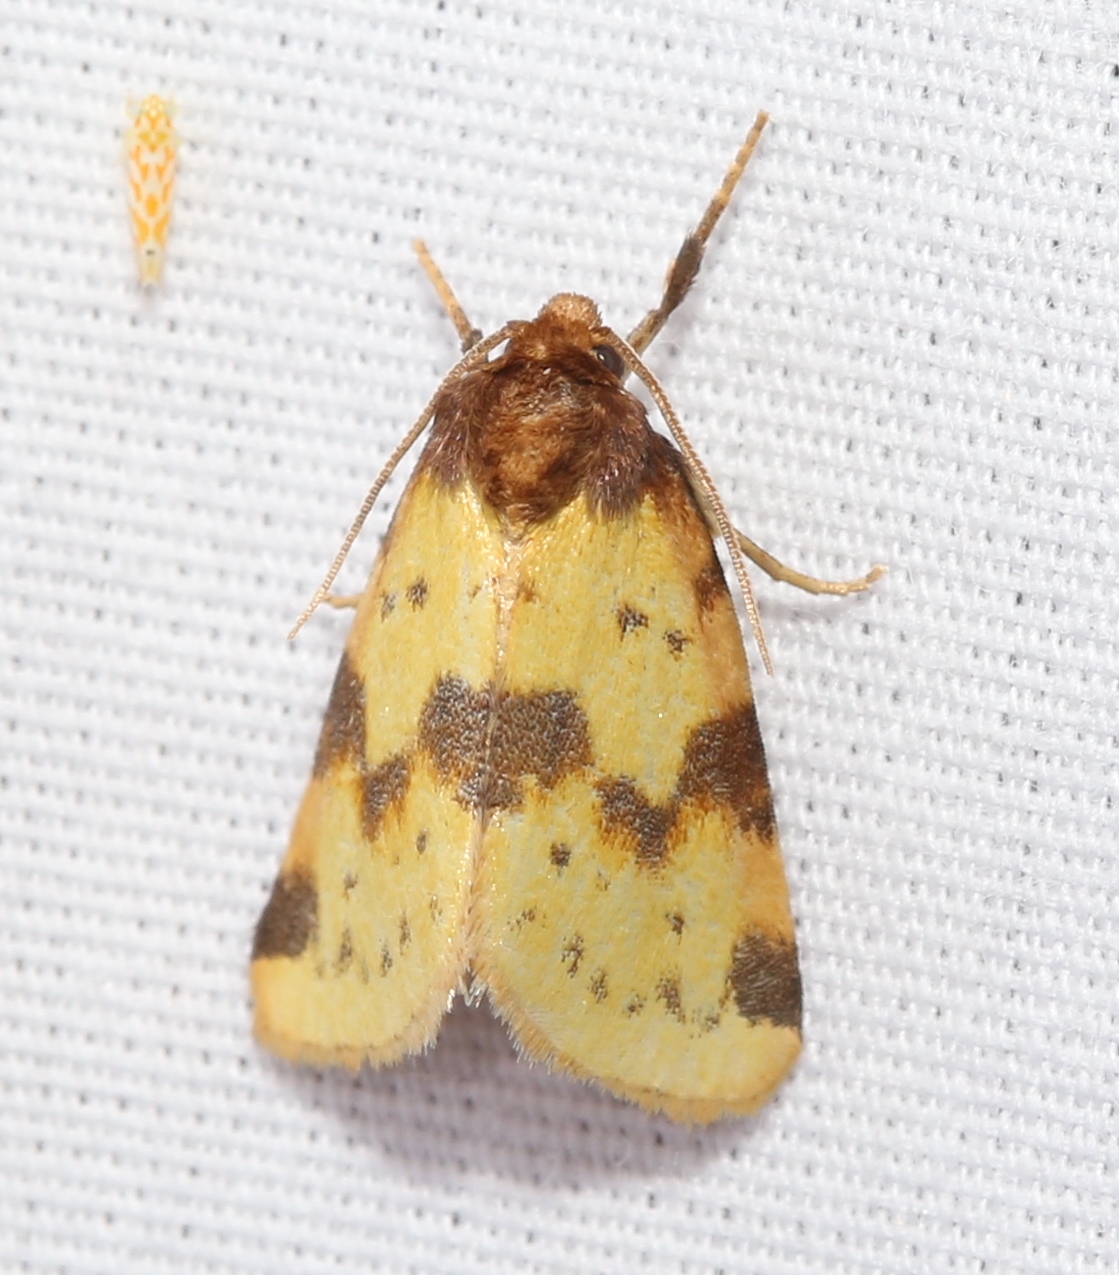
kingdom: Animalia
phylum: Arthropoda
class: Insecta
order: Lepidoptera
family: Noctuidae
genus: Azenia
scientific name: Azenia obtusa
